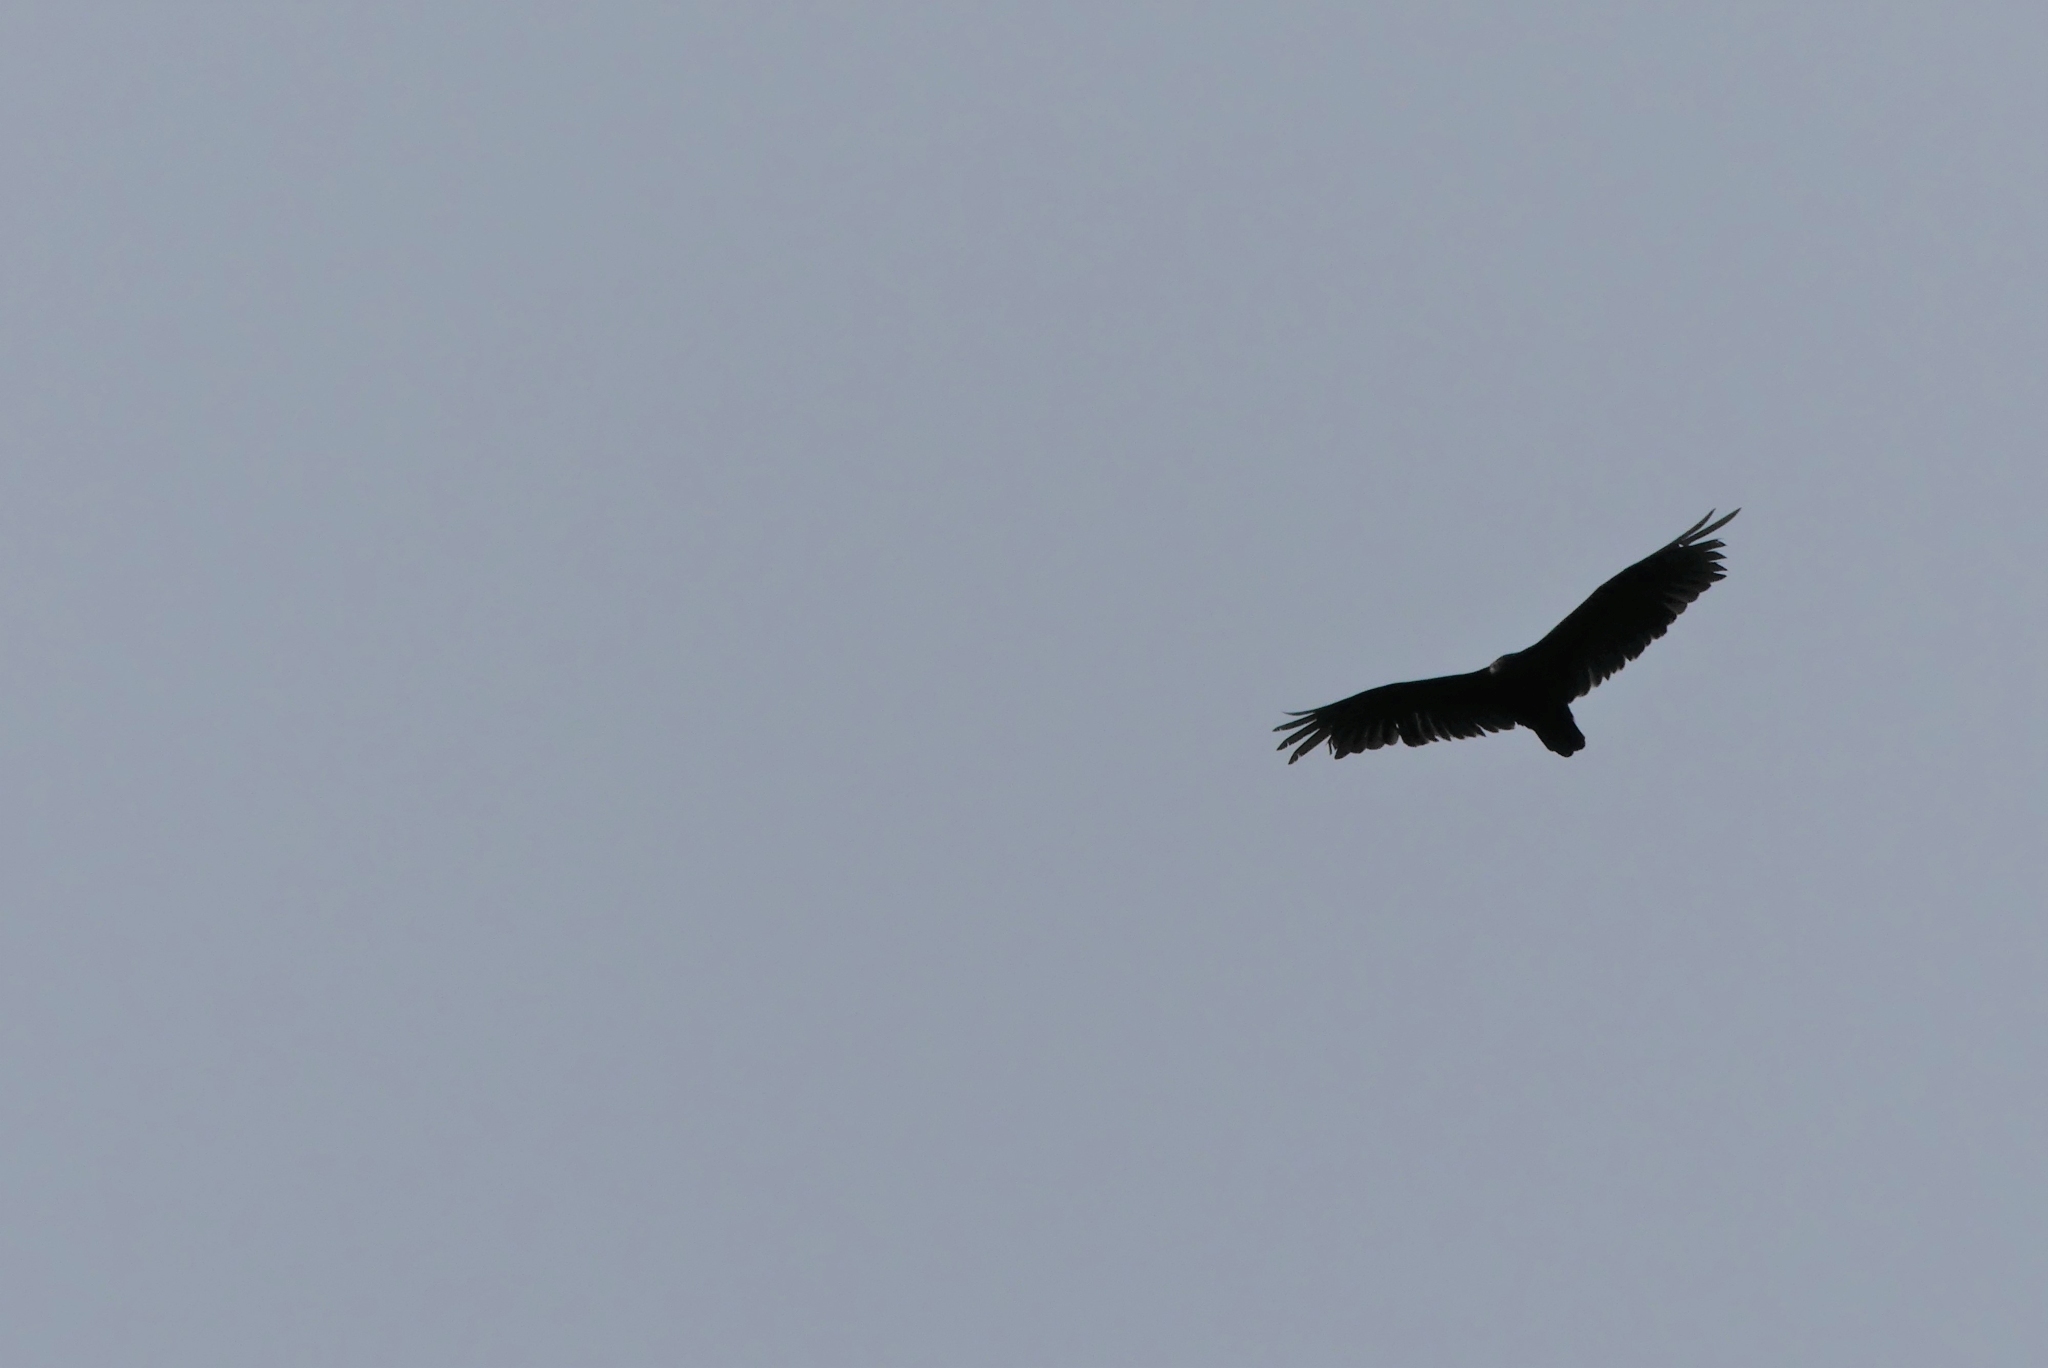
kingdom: Animalia
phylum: Chordata
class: Aves
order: Accipitriformes
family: Cathartidae
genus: Cathartes
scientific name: Cathartes aura
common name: Turkey vulture
